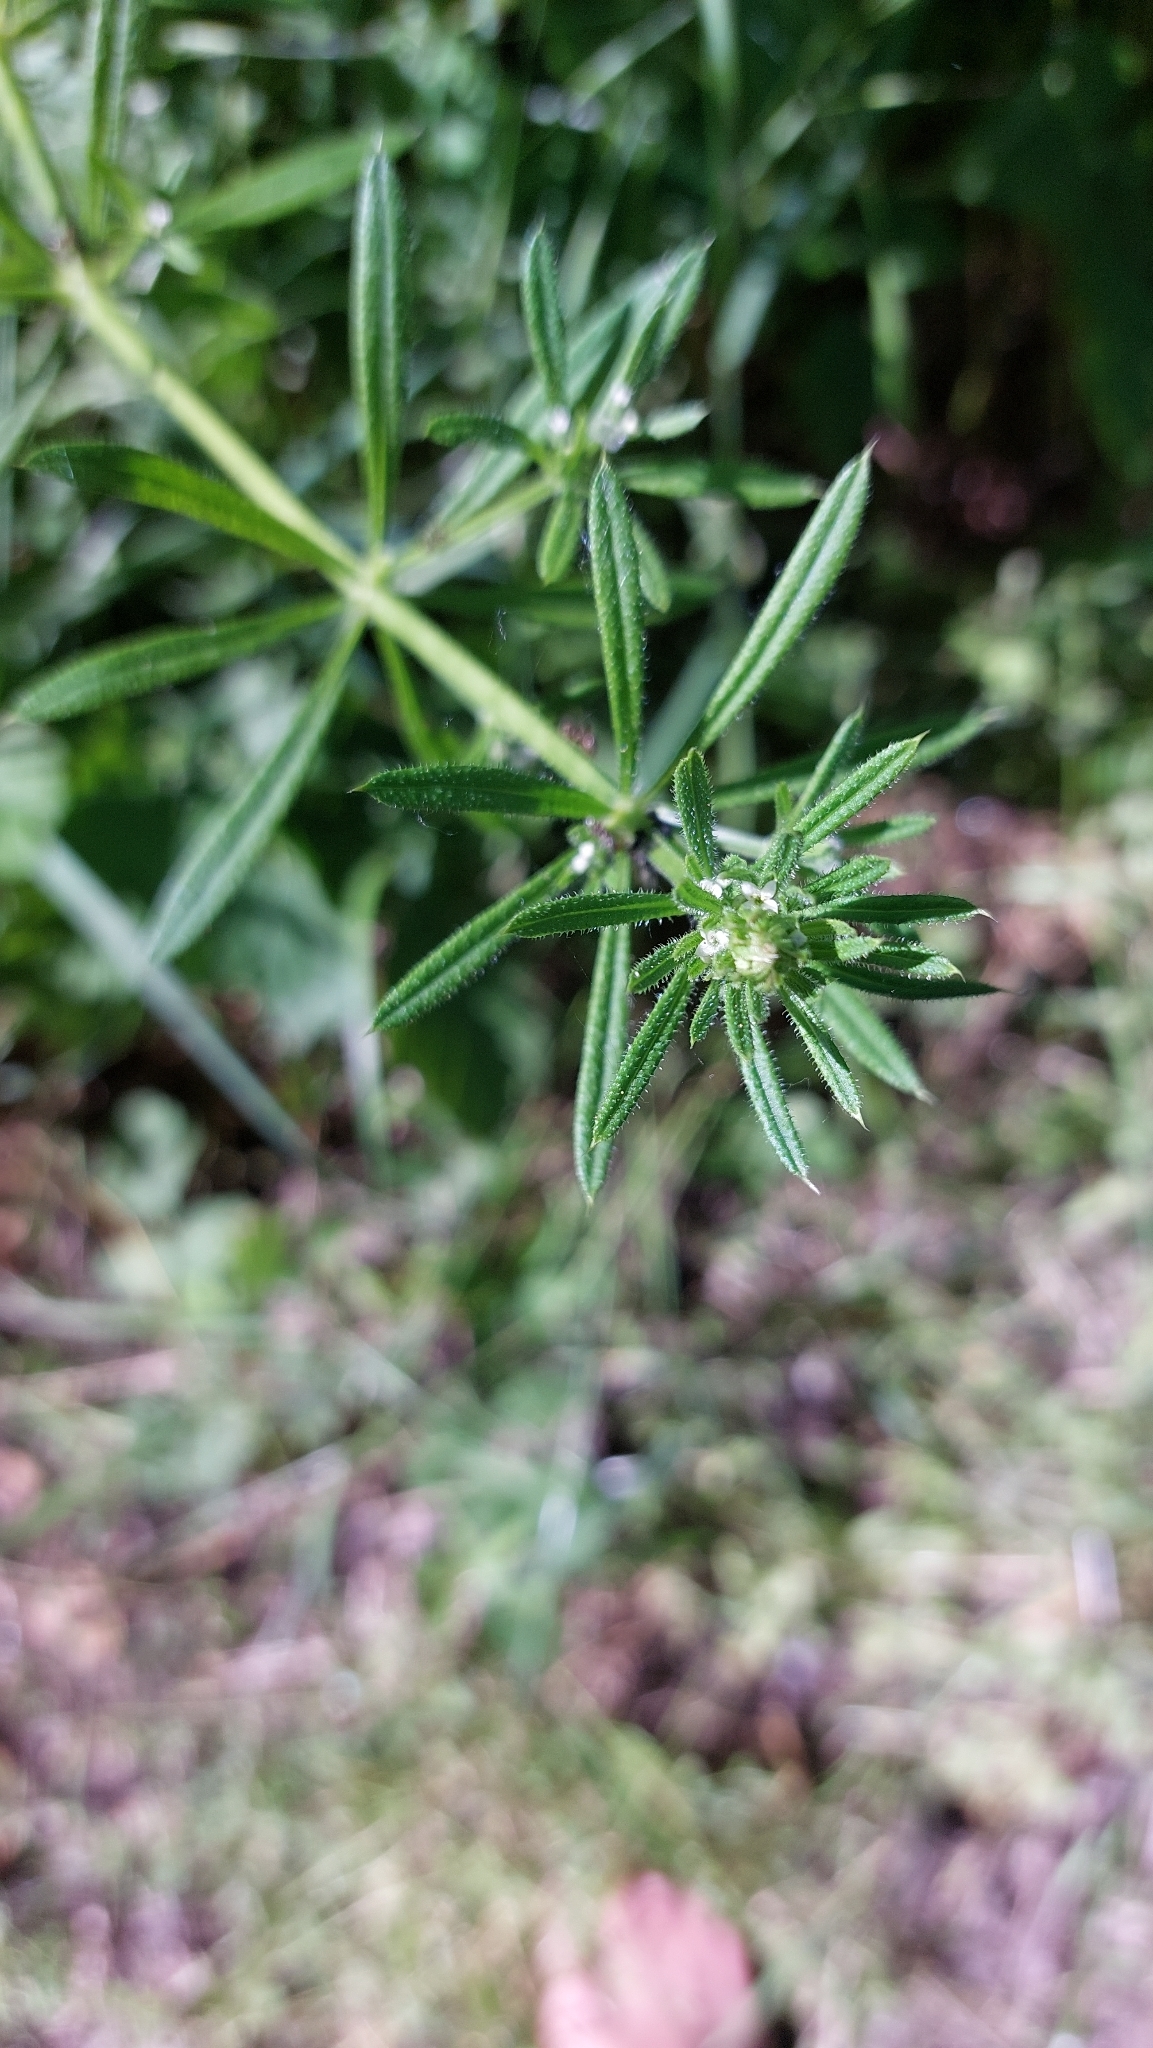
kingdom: Plantae
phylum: Tracheophyta
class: Magnoliopsida
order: Gentianales
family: Rubiaceae
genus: Galium
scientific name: Galium aparine
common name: Cleavers
